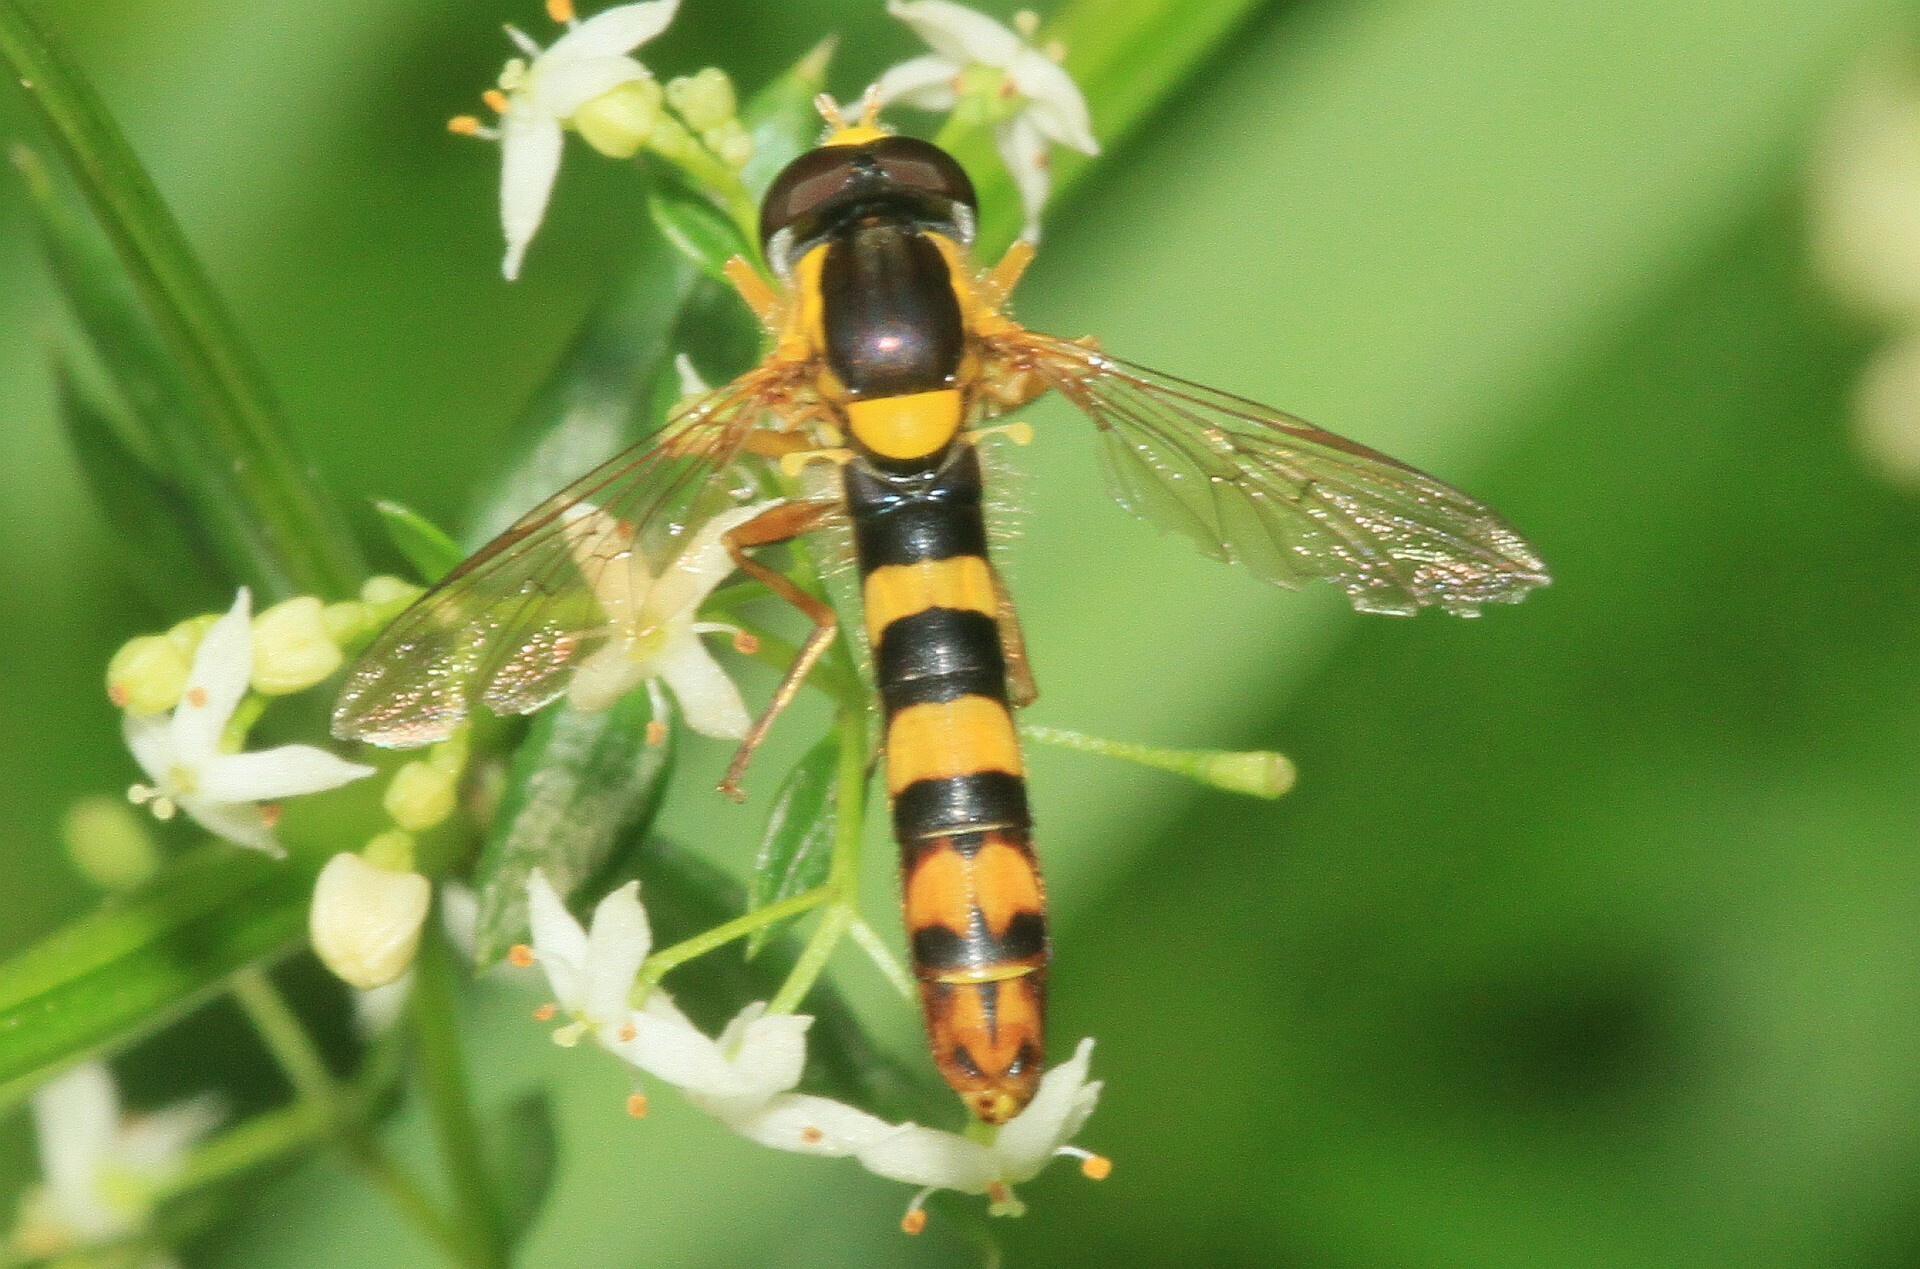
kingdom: Animalia
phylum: Arthropoda
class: Insecta
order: Diptera
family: Syrphidae
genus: Sphaerophoria
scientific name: Sphaerophoria scripta
